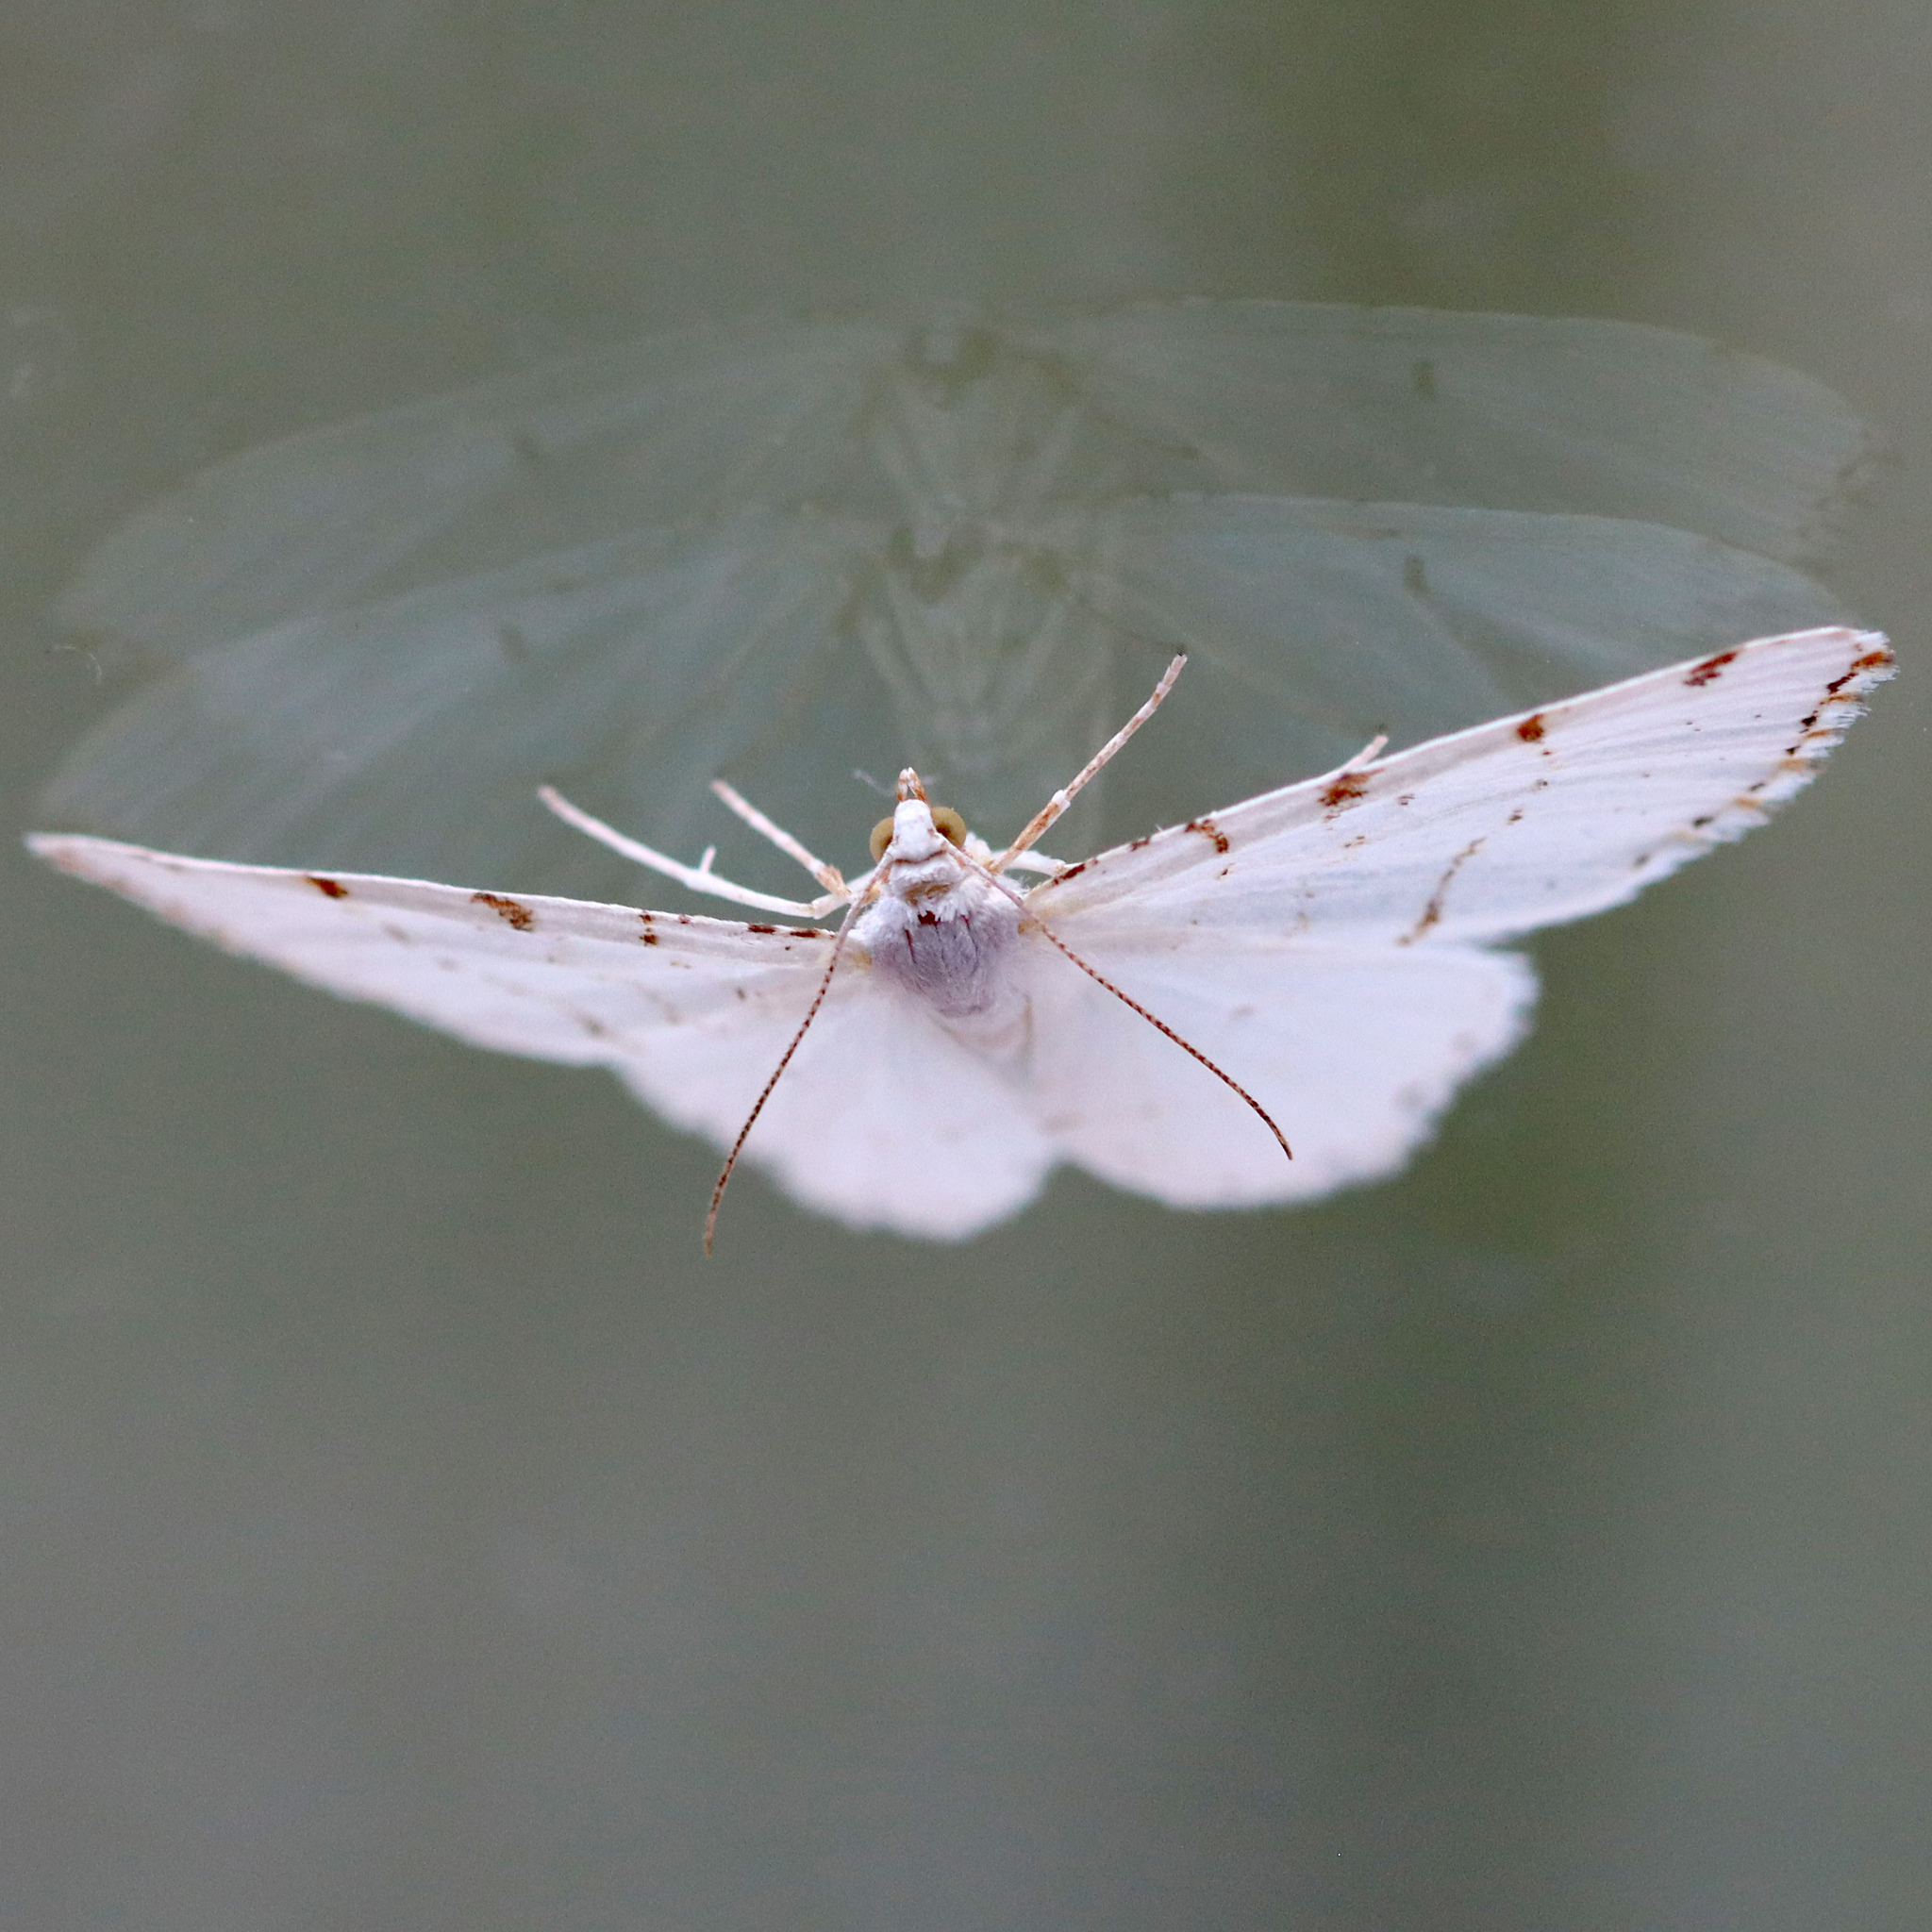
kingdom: Animalia
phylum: Arthropoda
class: Insecta
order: Lepidoptera
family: Geometridae
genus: Macaria
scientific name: Macaria pustularia
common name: Lesser maple spanworm moth
